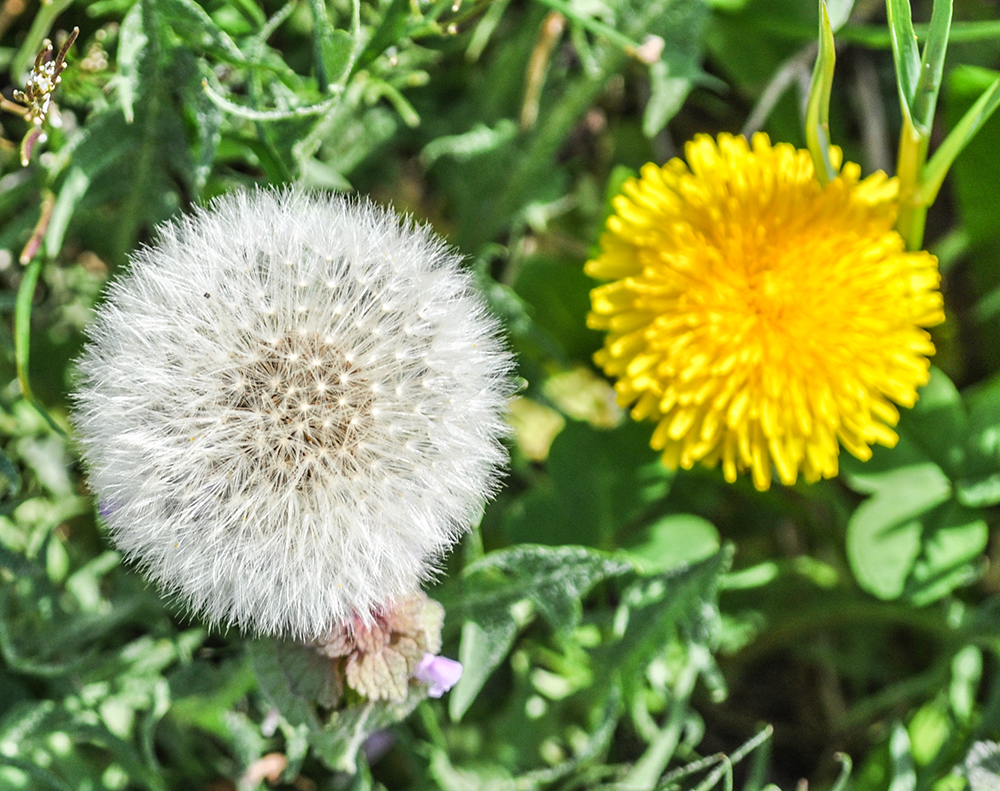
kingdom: Plantae
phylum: Tracheophyta
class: Magnoliopsida
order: Asterales
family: Asteraceae
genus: Taraxacum
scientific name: Taraxacum officinale
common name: Common dandelion
